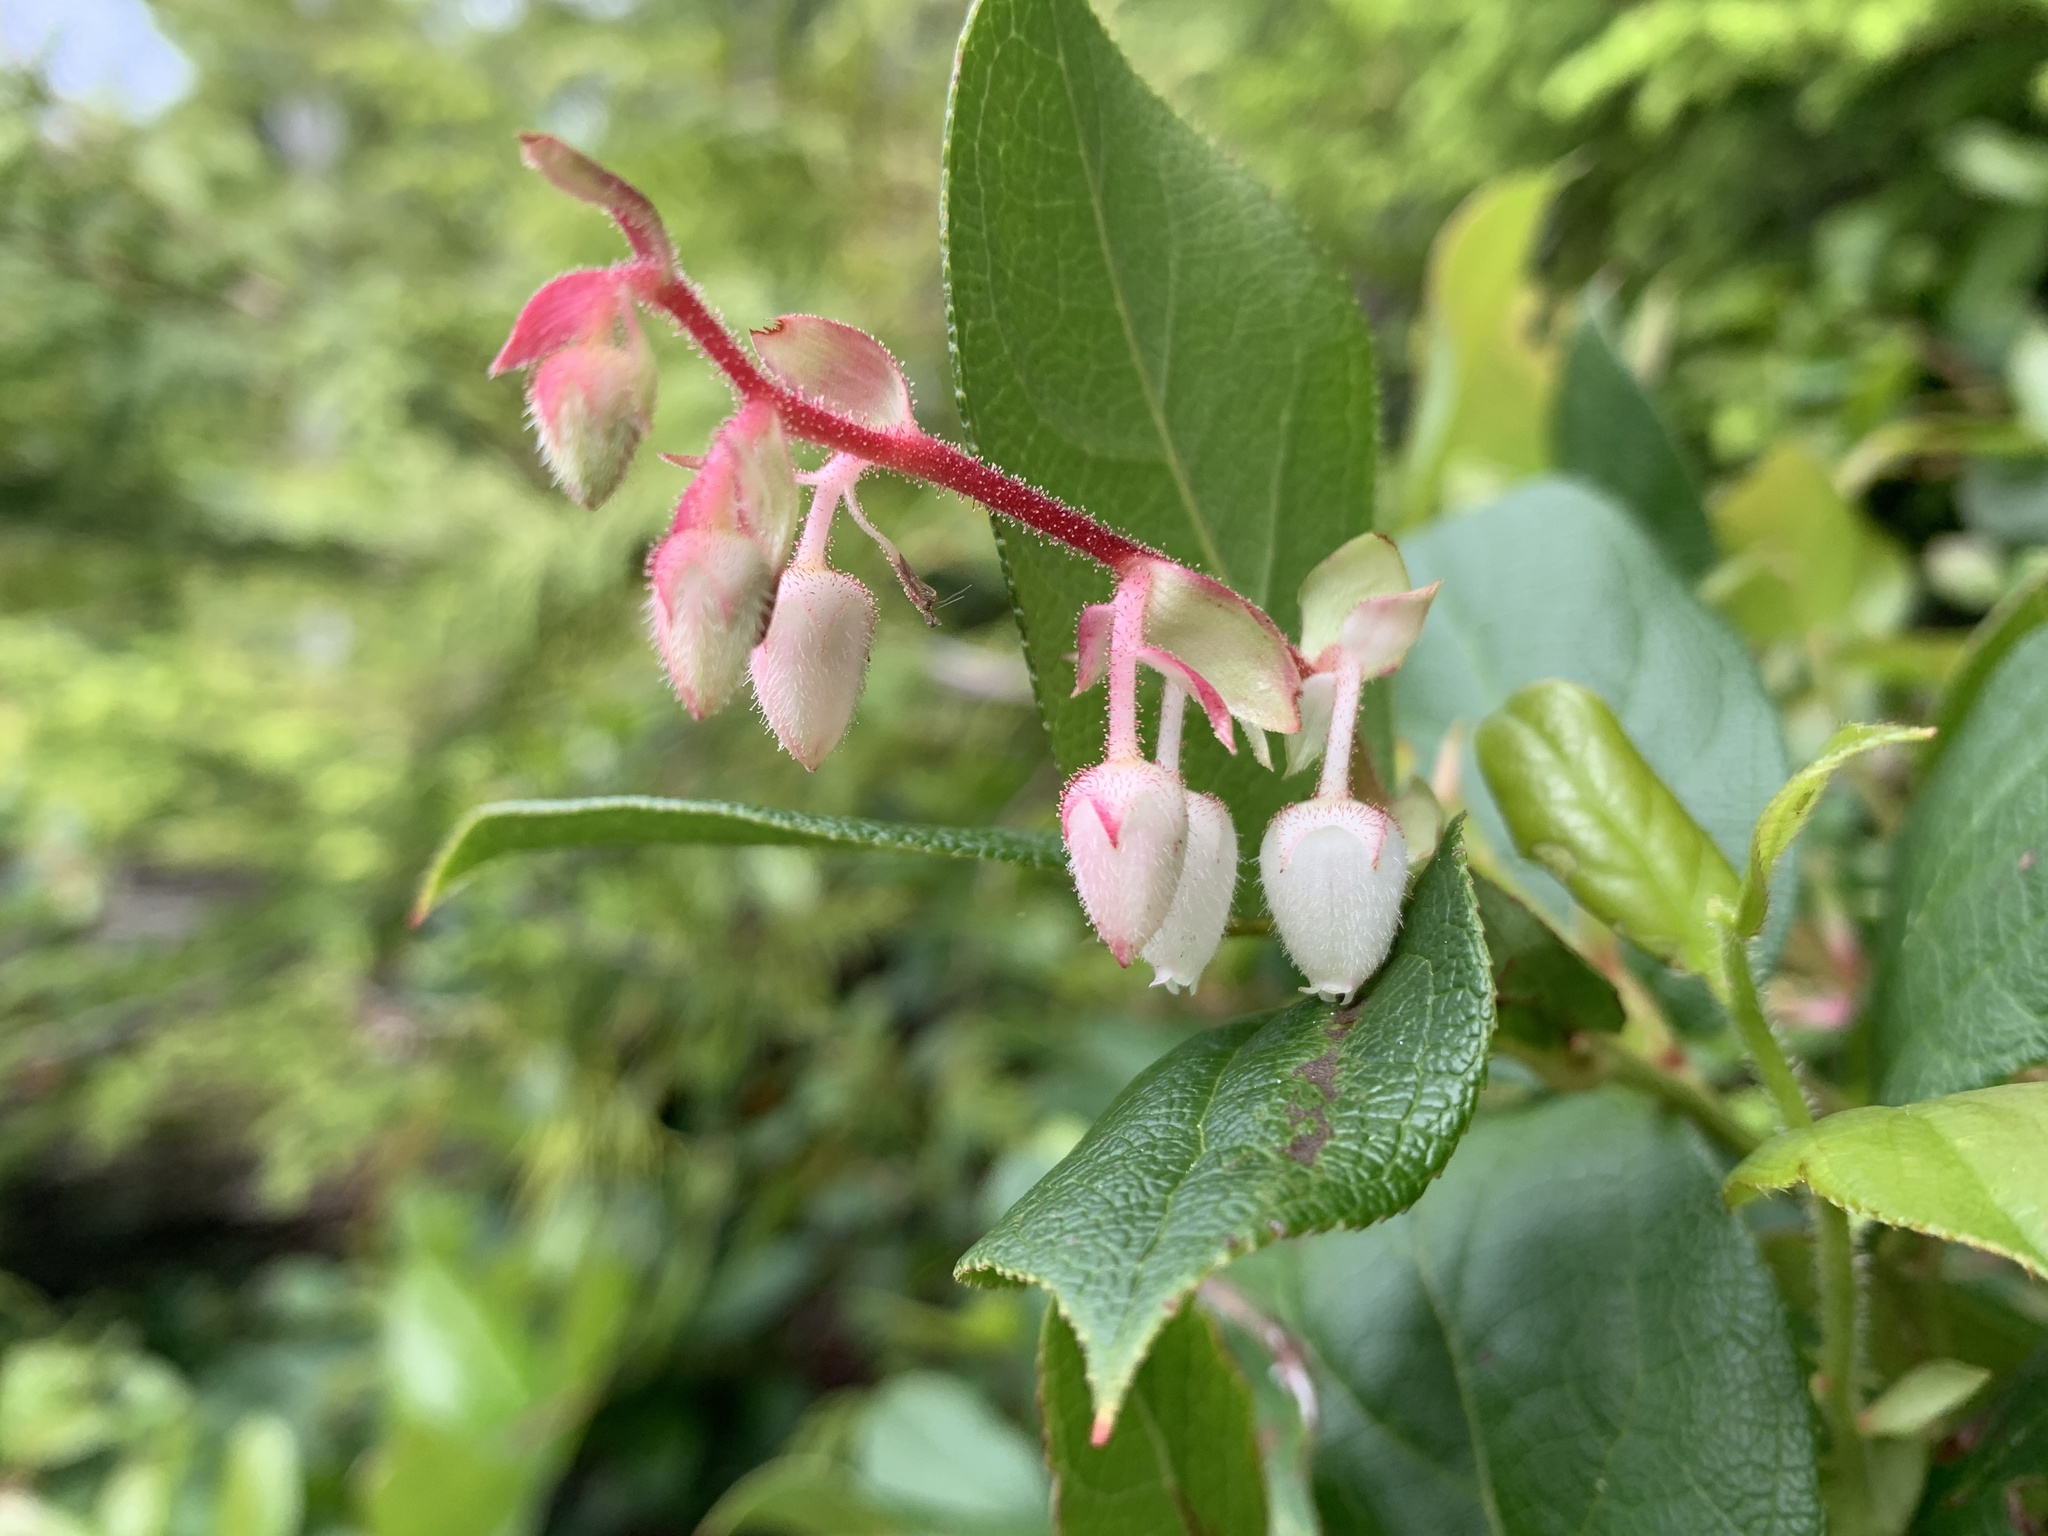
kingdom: Plantae
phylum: Tracheophyta
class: Magnoliopsida
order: Ericales
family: Ericaceae
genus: Gaultheria
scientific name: Gaultheria shallon
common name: Shallon
